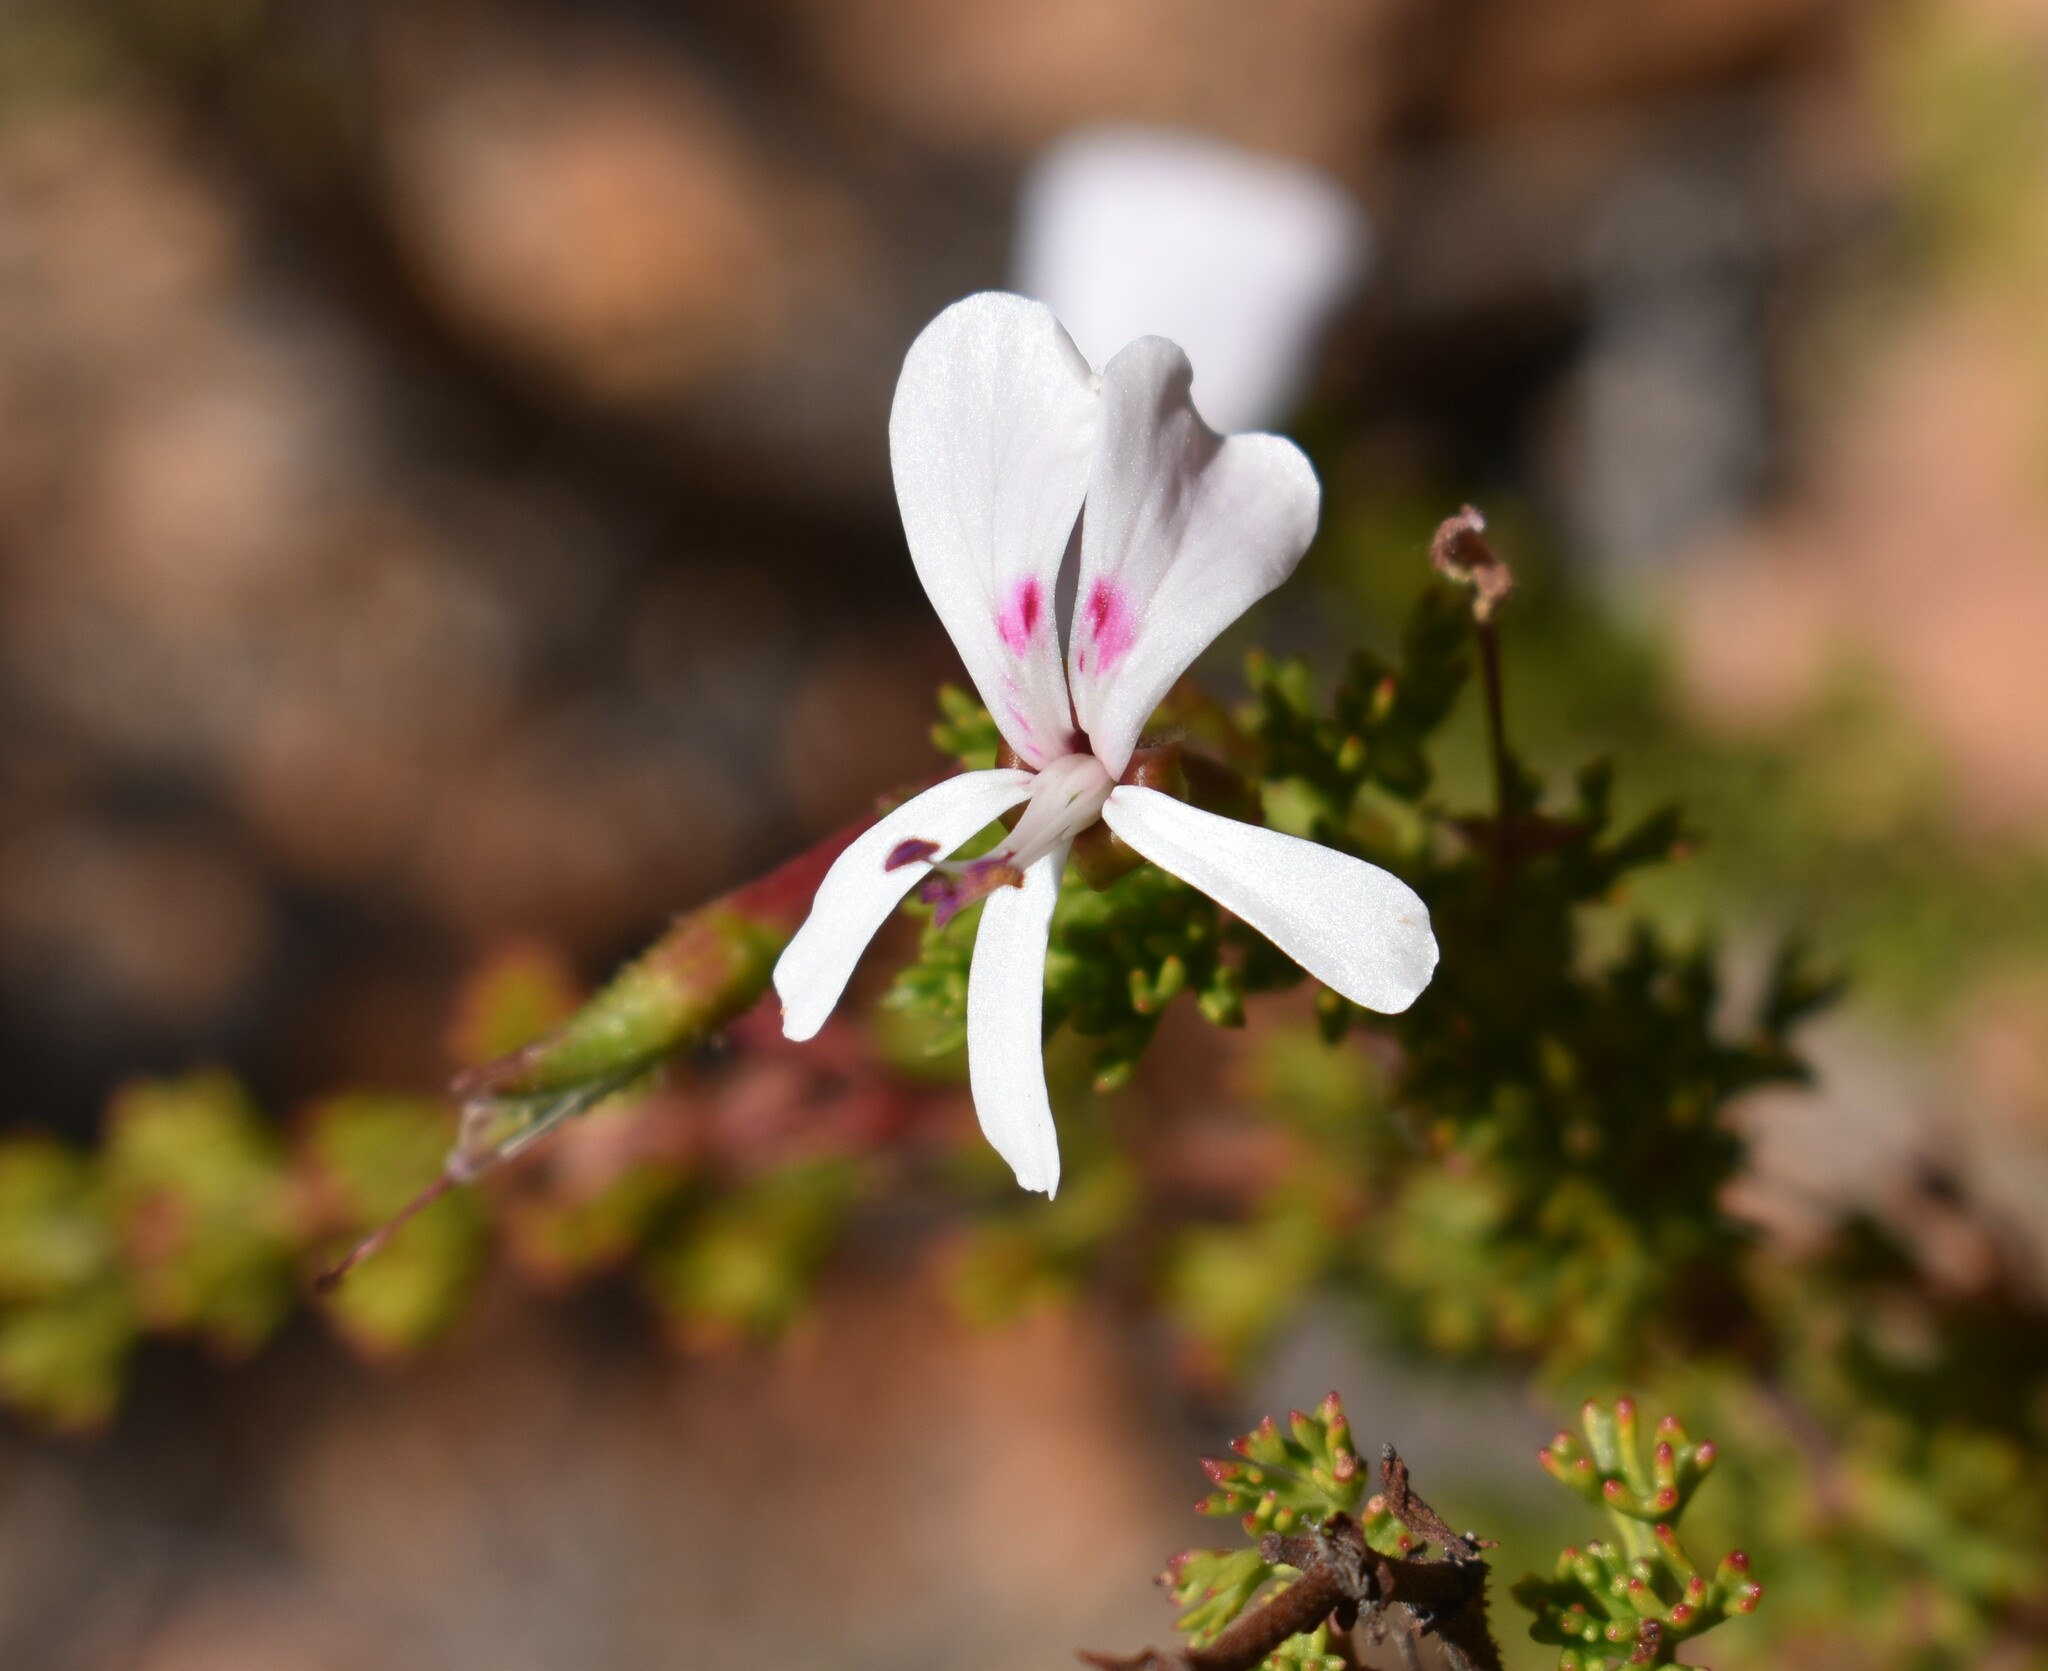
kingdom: Plantae
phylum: Tracheophyta
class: Magnoliopsida
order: Geraniales
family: Geraniaceae
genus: Pelargonium
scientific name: Pelargonium fruticosum
